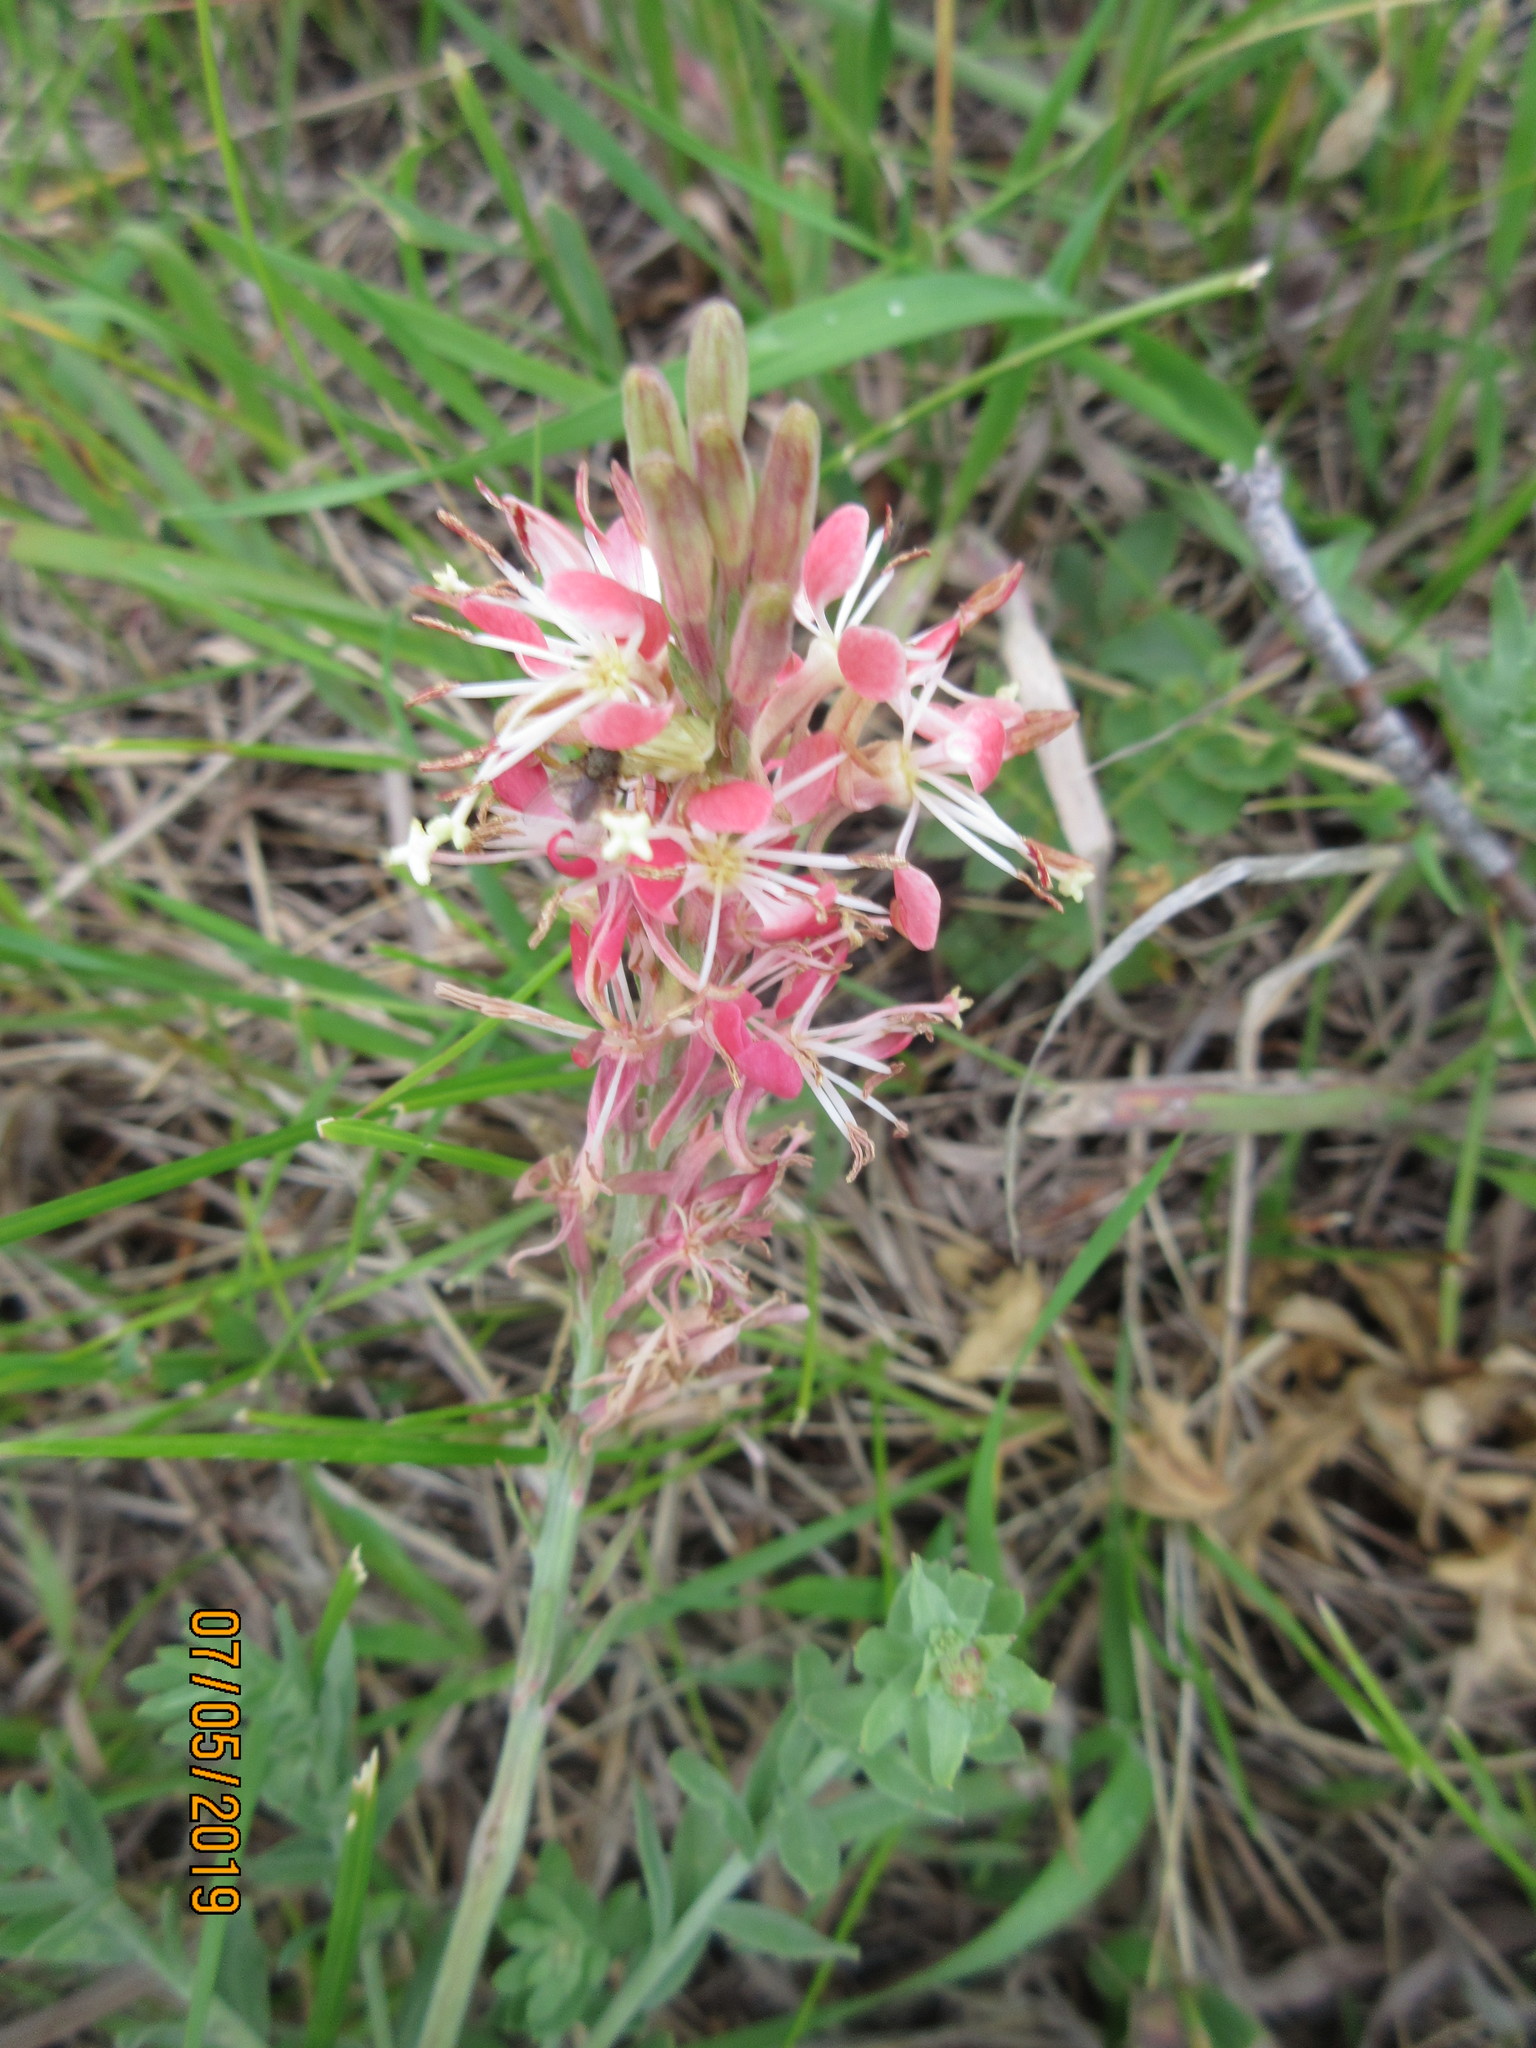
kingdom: Plantae
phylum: Tracheophyta
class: Magnoliopsida
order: Myrtales
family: Onagraceae
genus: Oenothera
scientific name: Oenothera suffrutescens
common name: Scarlet beeblossom
